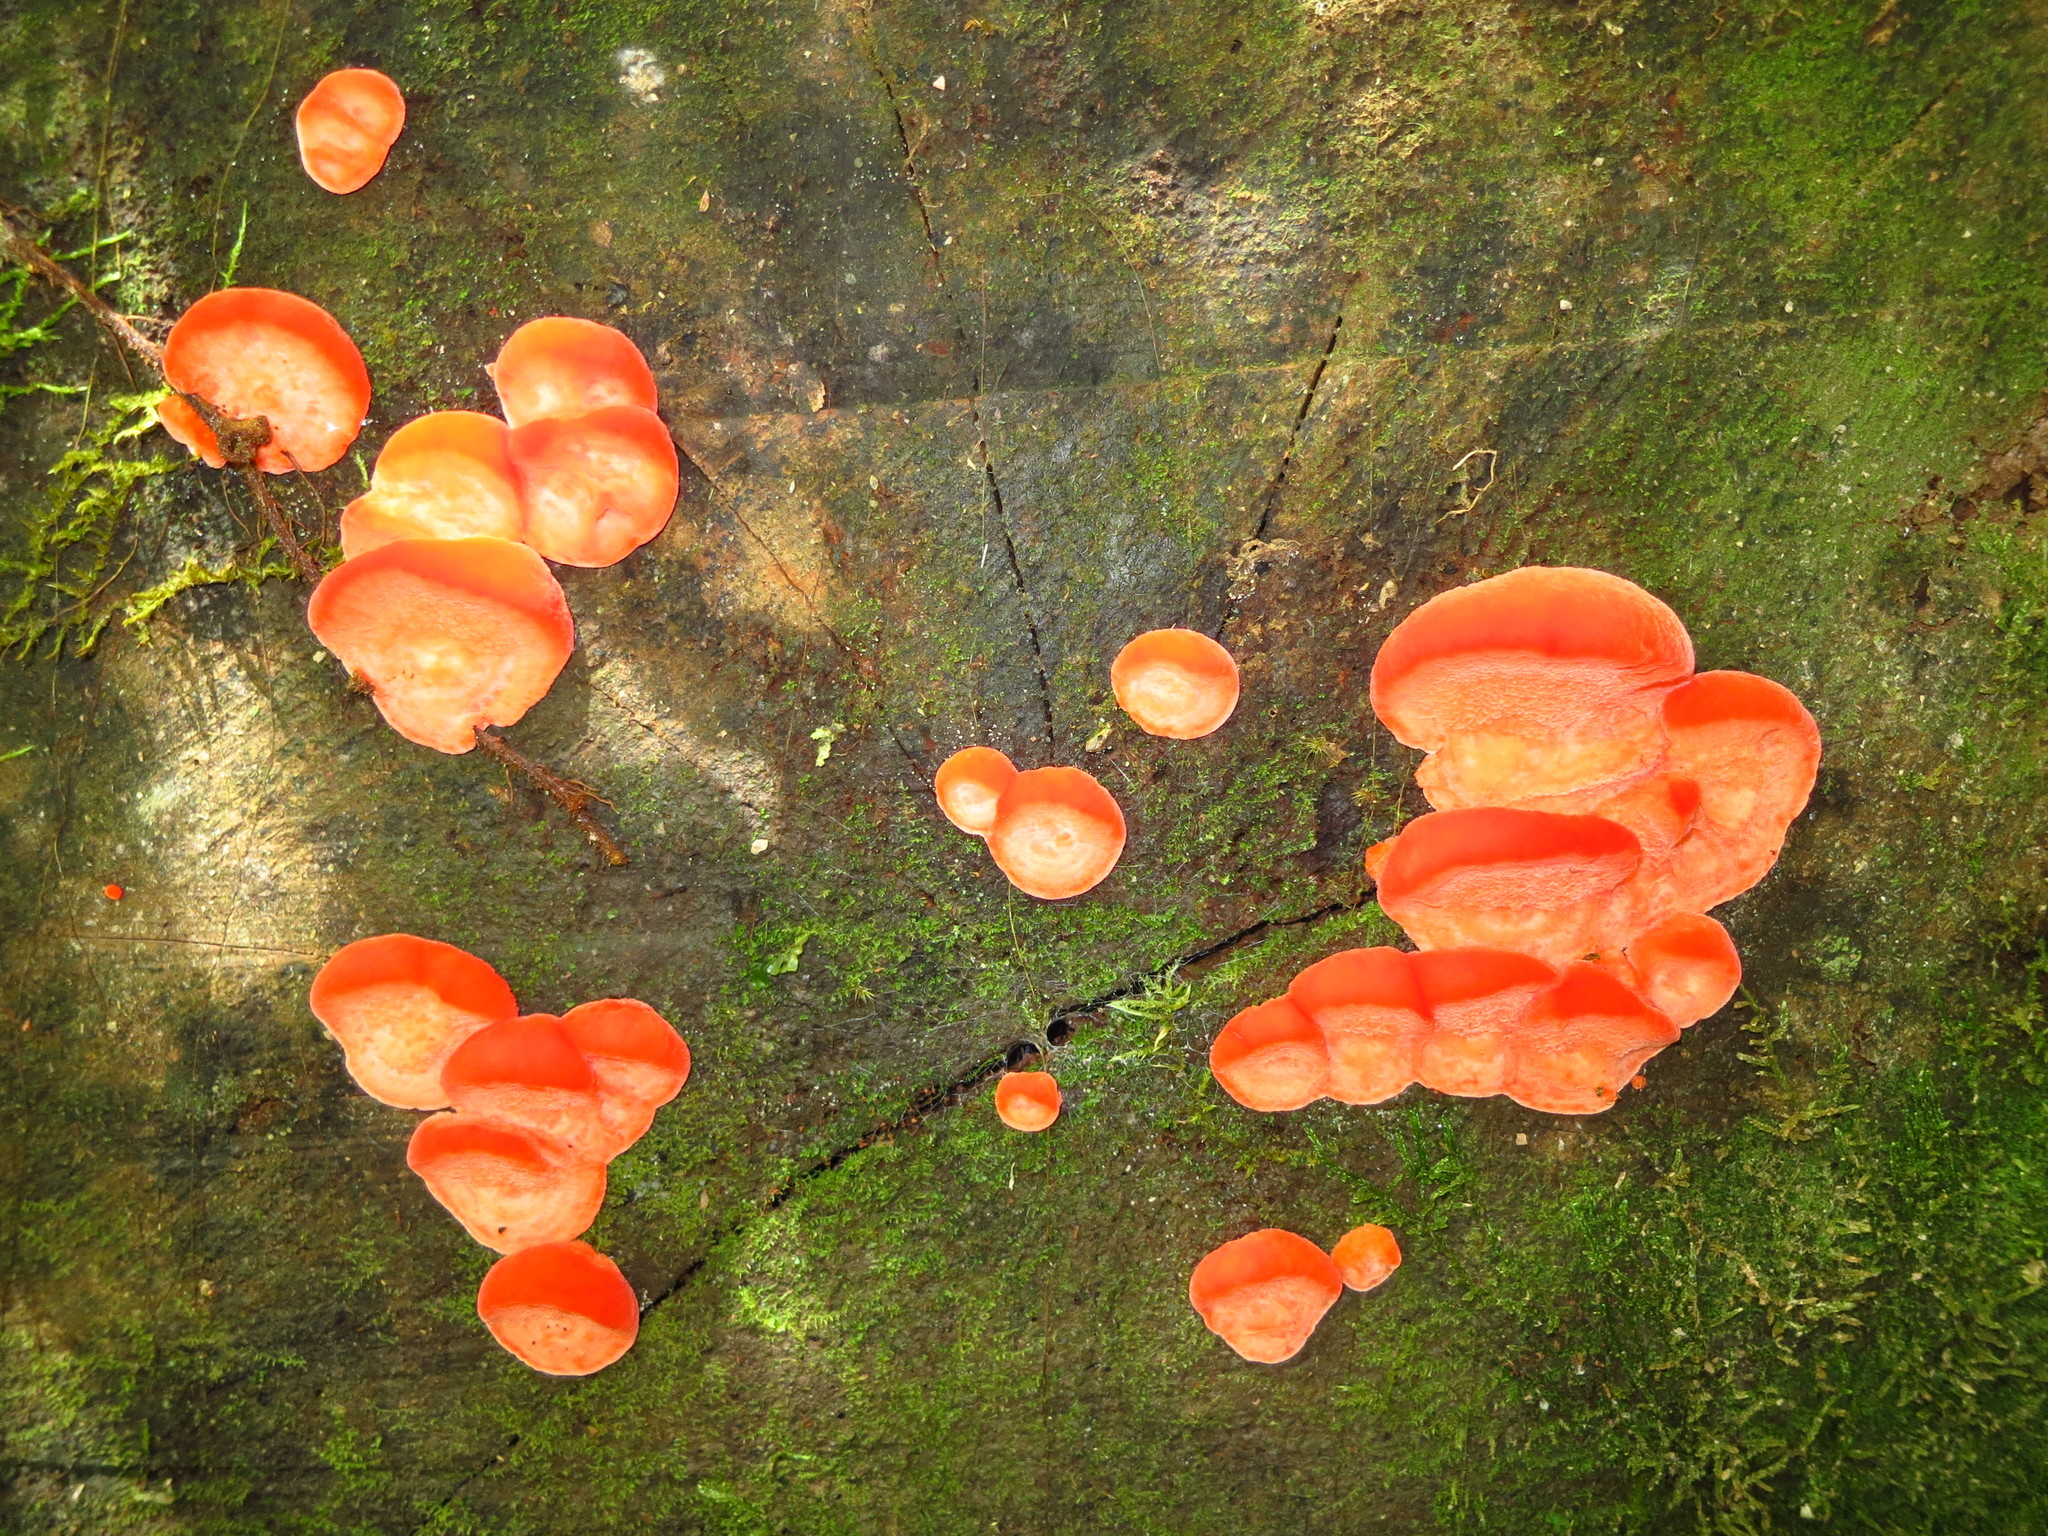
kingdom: Fungi
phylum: Basidiomycota
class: Agaricomycetes
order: Polyporales
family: Incrustoporiaceae
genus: Tyromyces
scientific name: Tyromyces pulcherrimus
